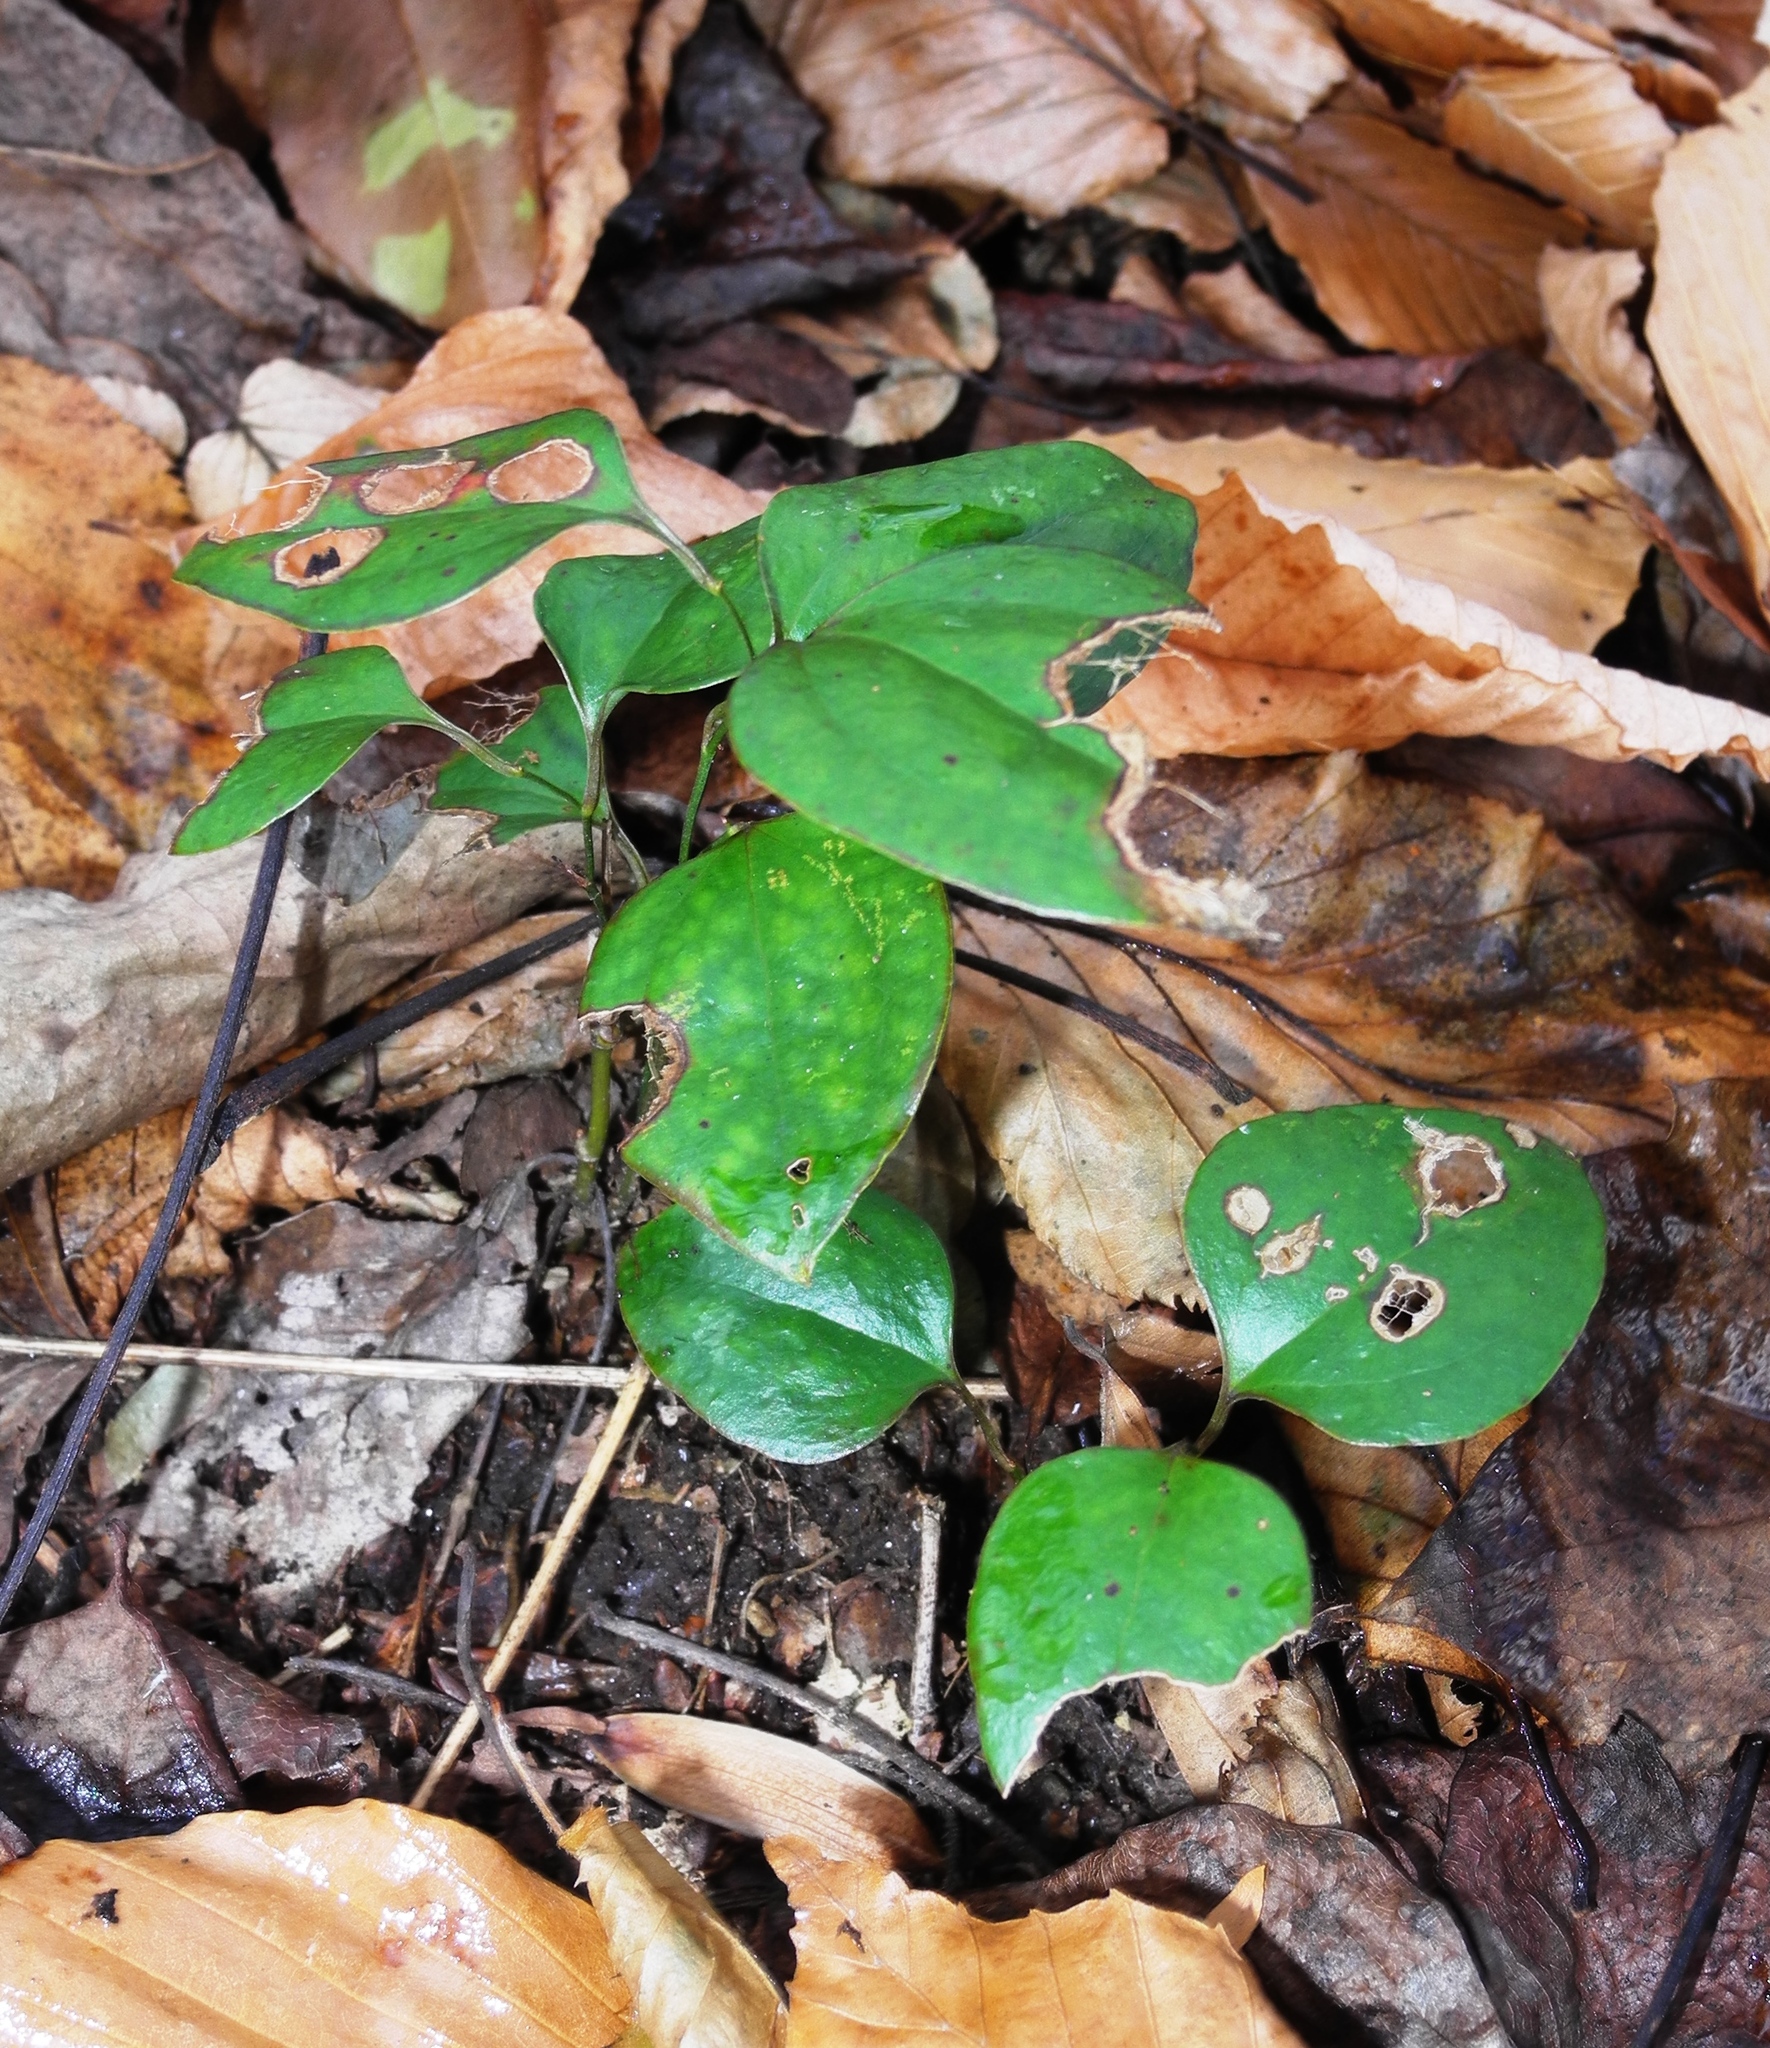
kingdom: Plantae
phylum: Tracheophyta
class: Liliopsida
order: Liliales
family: Smilacaceae
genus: Smilax
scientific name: Smilax glauca
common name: Cat greenbrier
